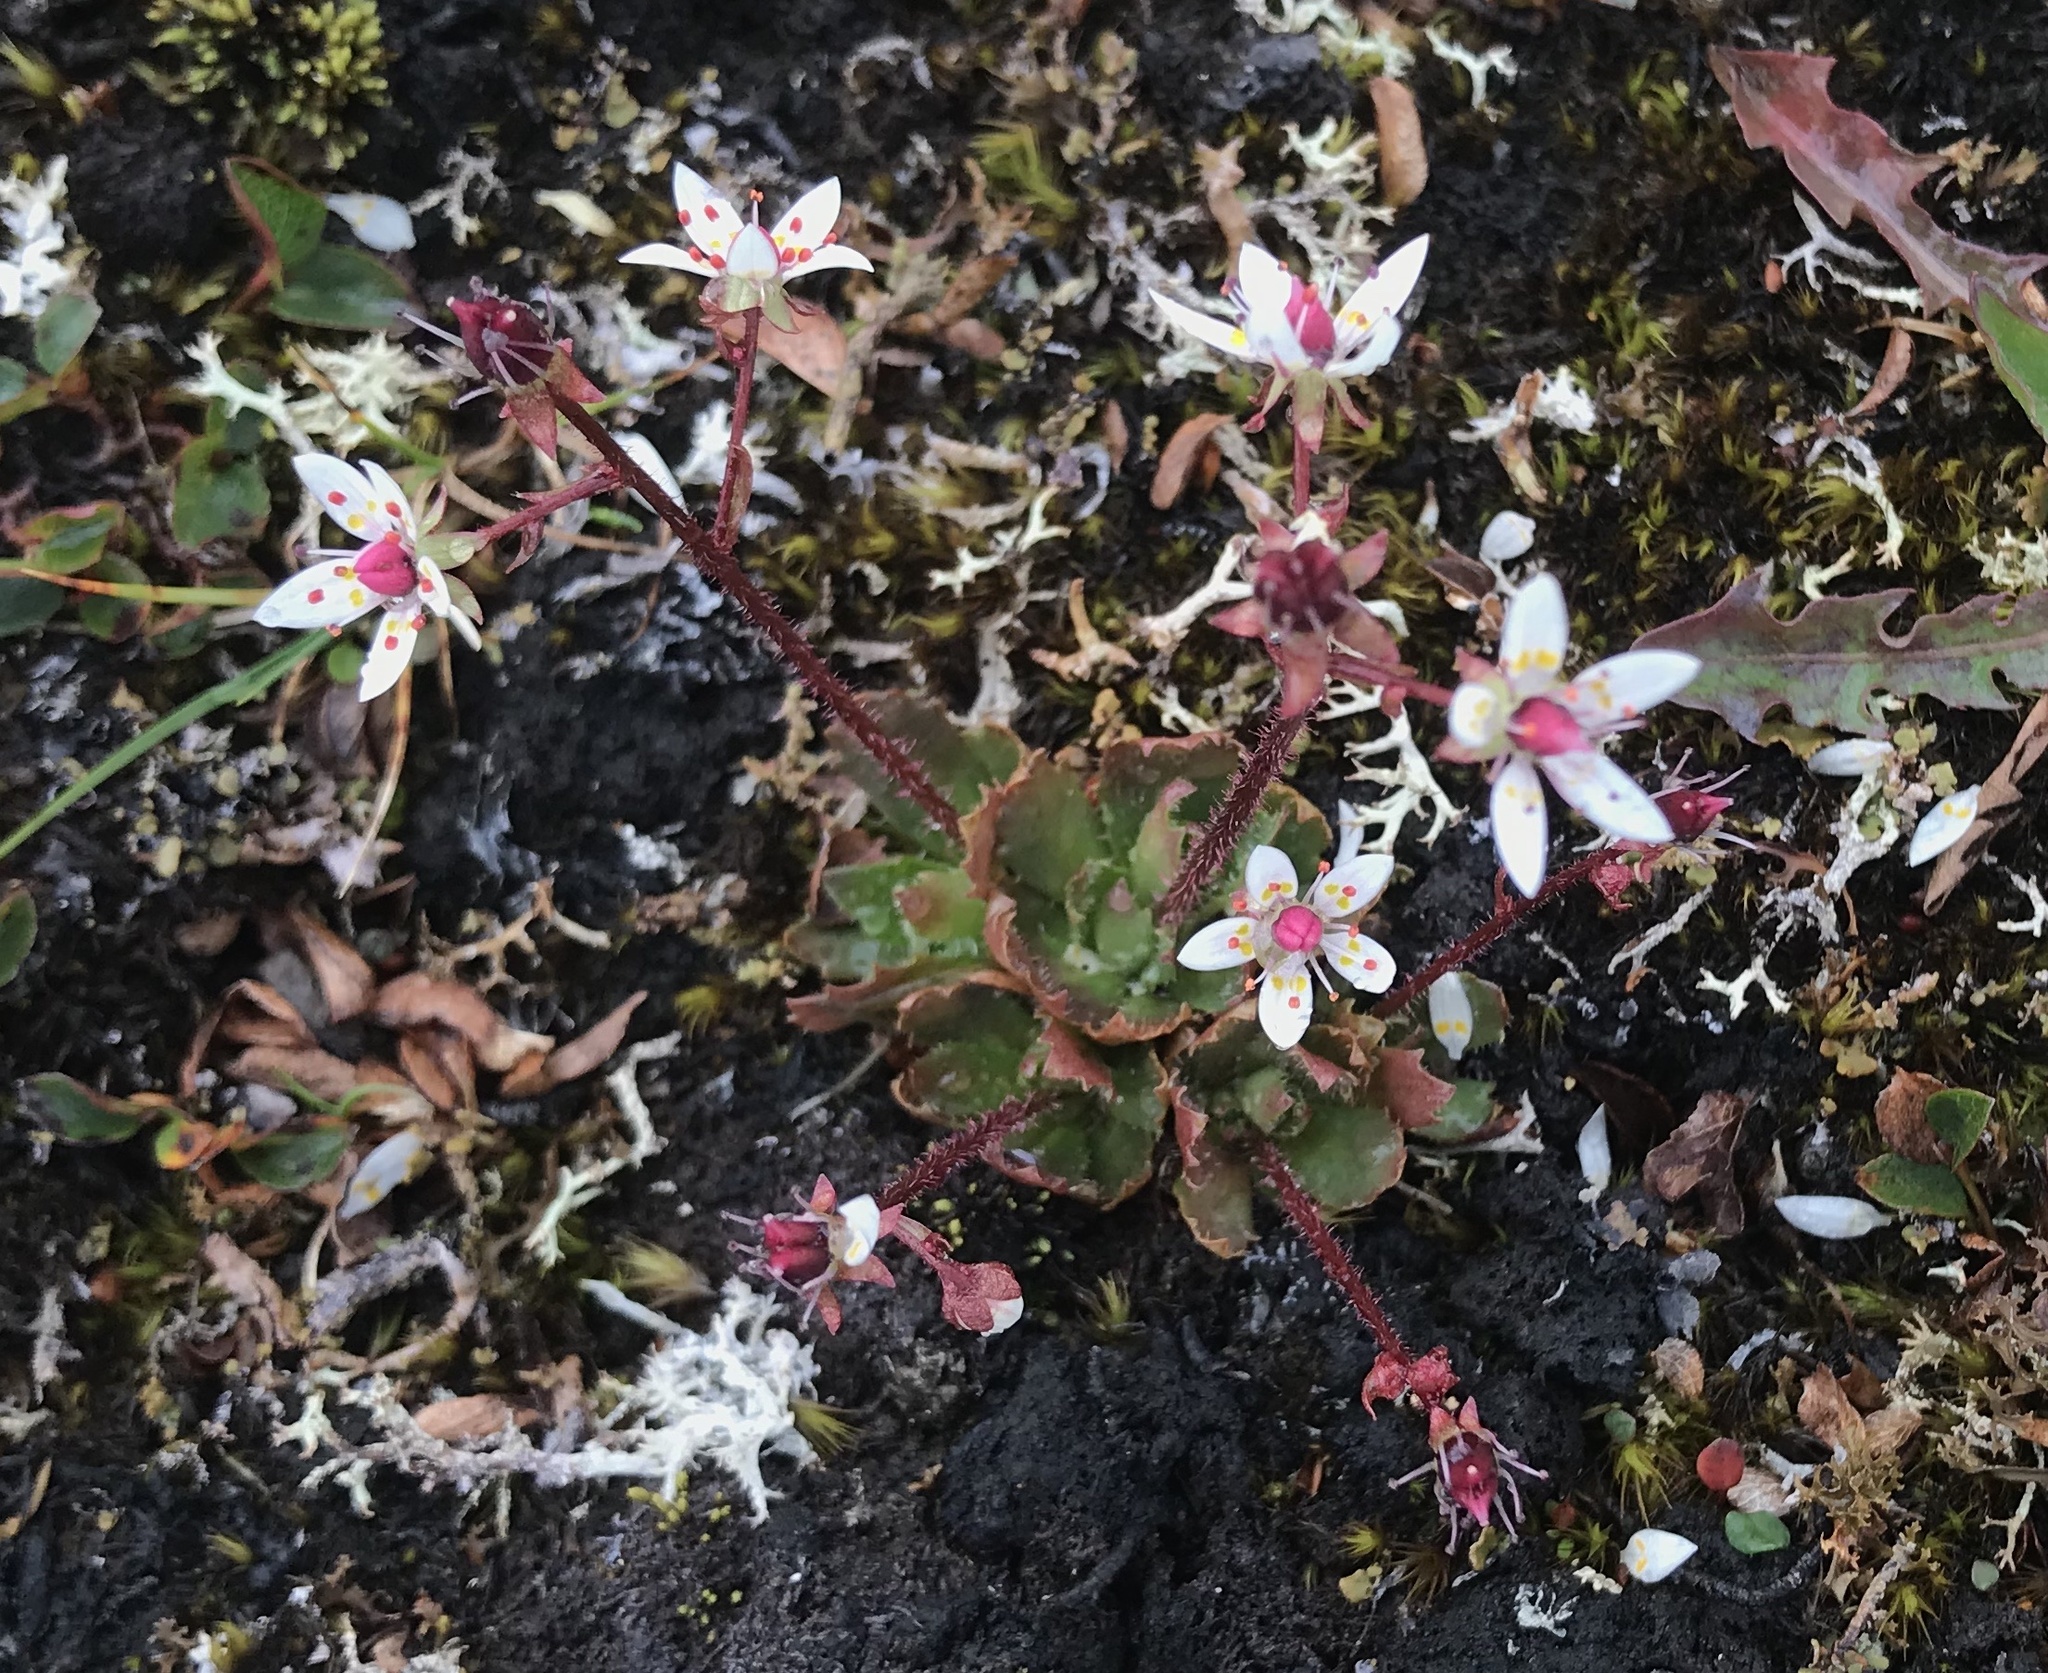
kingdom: Plantae
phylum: Tracheophyta
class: Magnoliopsida
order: Saxifragales
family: Saxifragaceae
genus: Micranthes
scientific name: Micranthes stellaris
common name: Starry saxifrage
